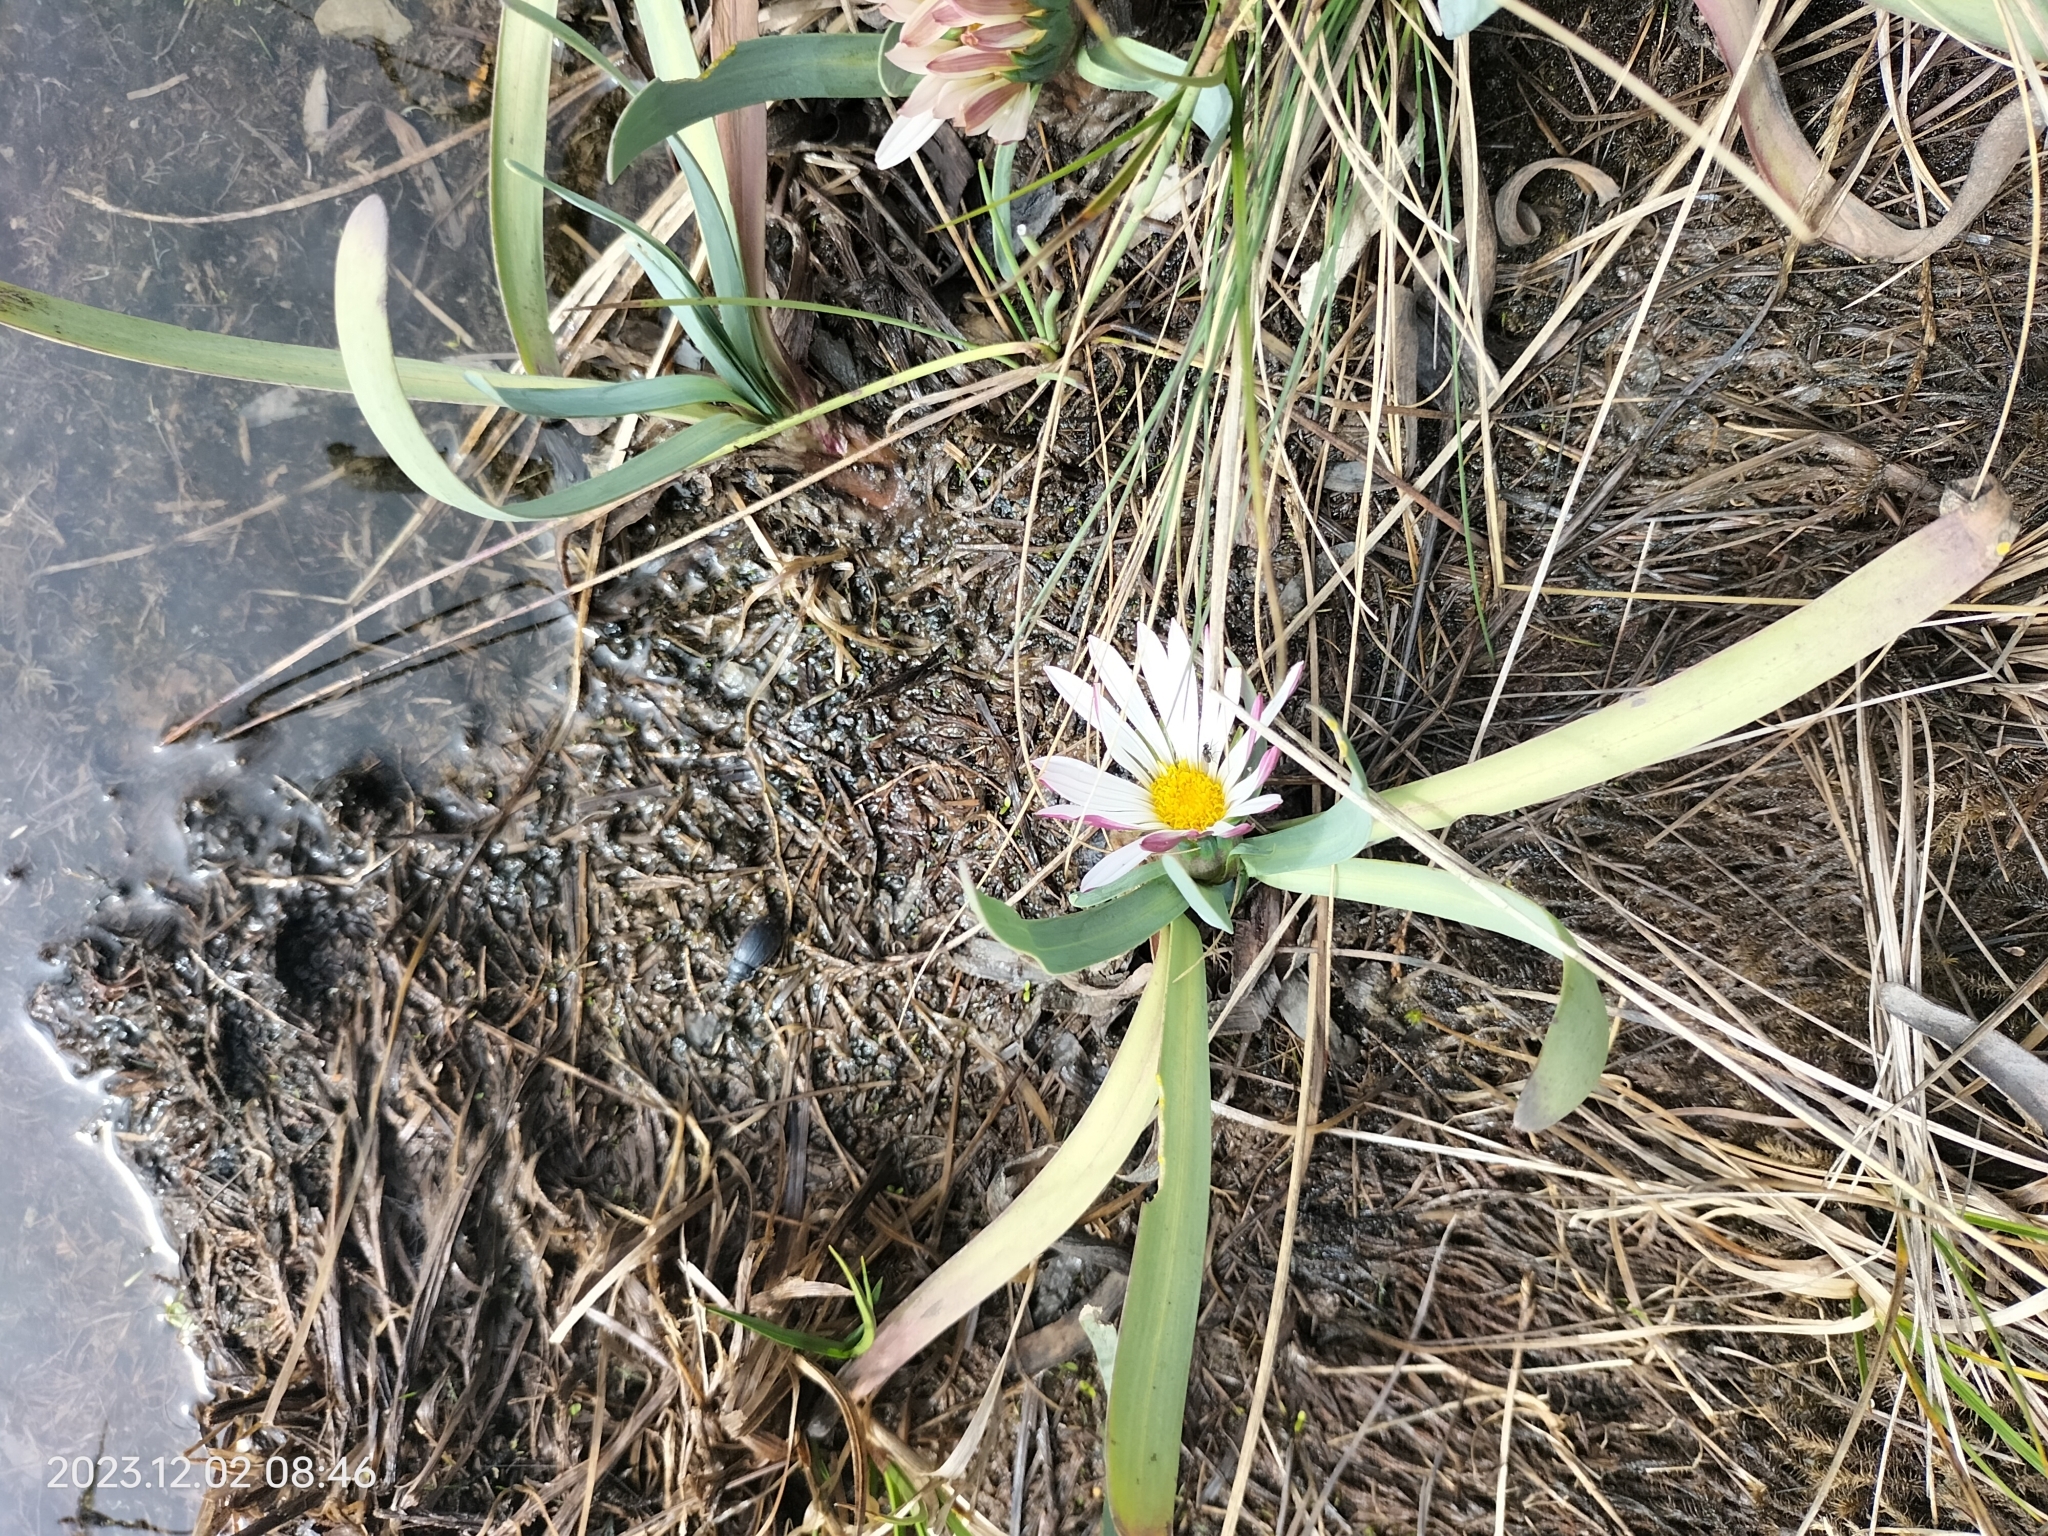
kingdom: Plantae
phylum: Tracheophyta
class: Magnoliopsida
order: Asterales
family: Asteraceae
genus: Rockhausenia
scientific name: Rockhausenia nubigena
